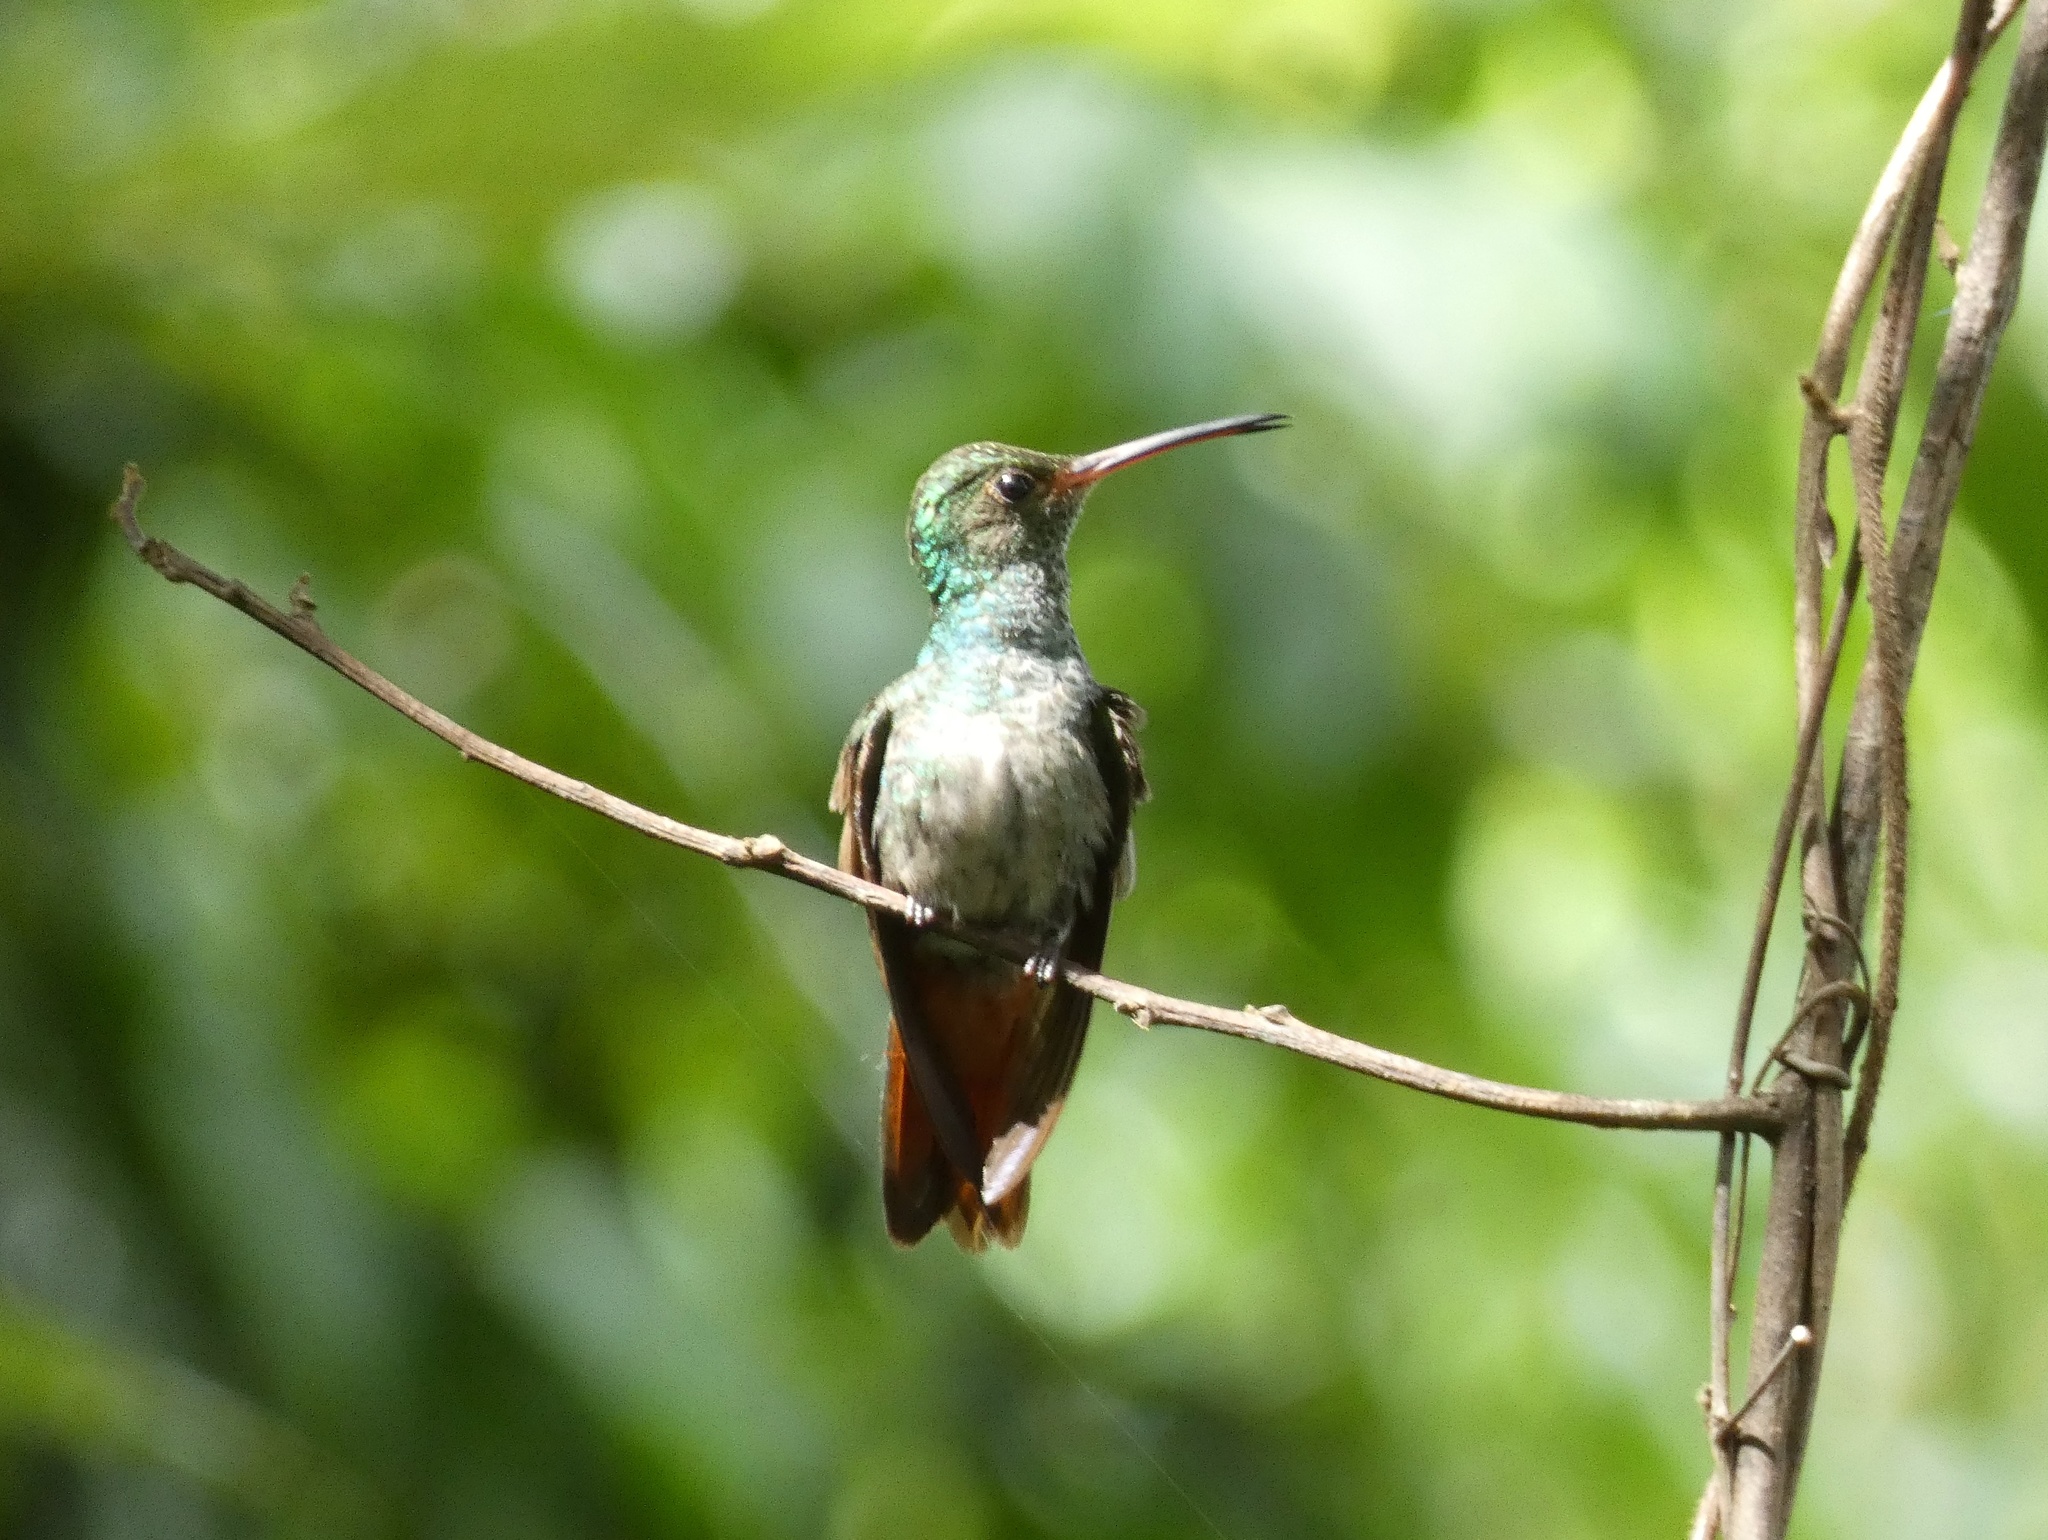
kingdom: Animalia
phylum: Chordata
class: Aves
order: Apodiformes
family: Trochilidae
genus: Amazilia
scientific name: Amazilia tzacatl
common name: Rufous-tailed hummingbird
